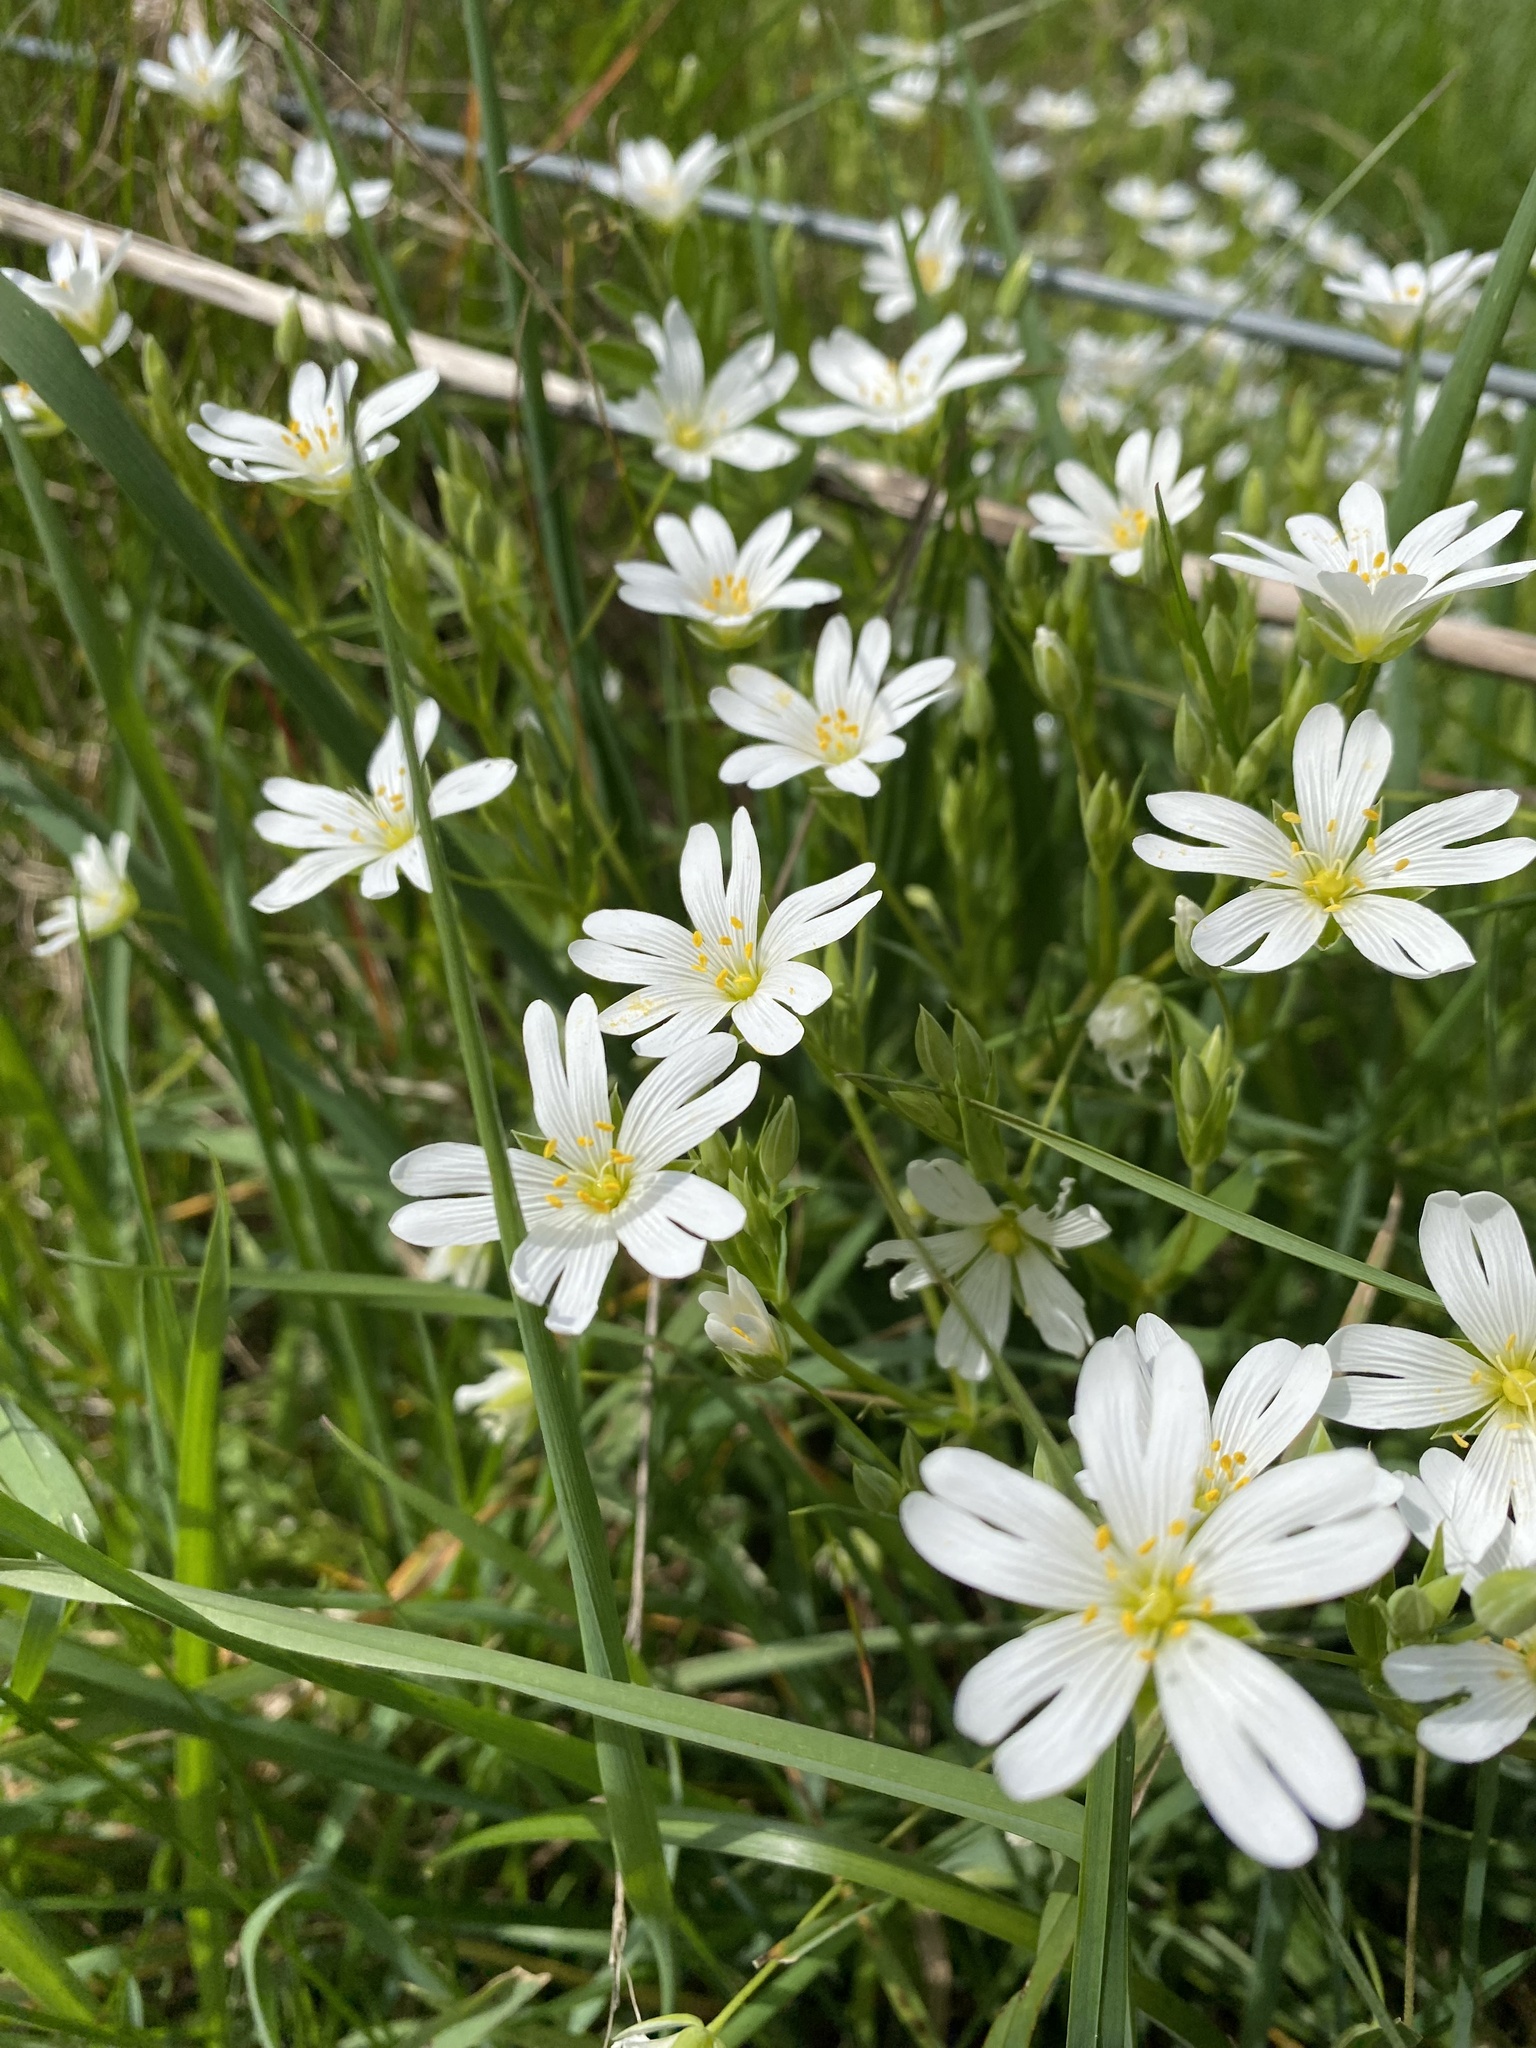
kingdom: Plantae
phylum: Tracheophyta
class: Magnoliopsida
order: Caryophyllales
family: Caryophyllaceae
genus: Rabelera
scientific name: Rabelera holostea
